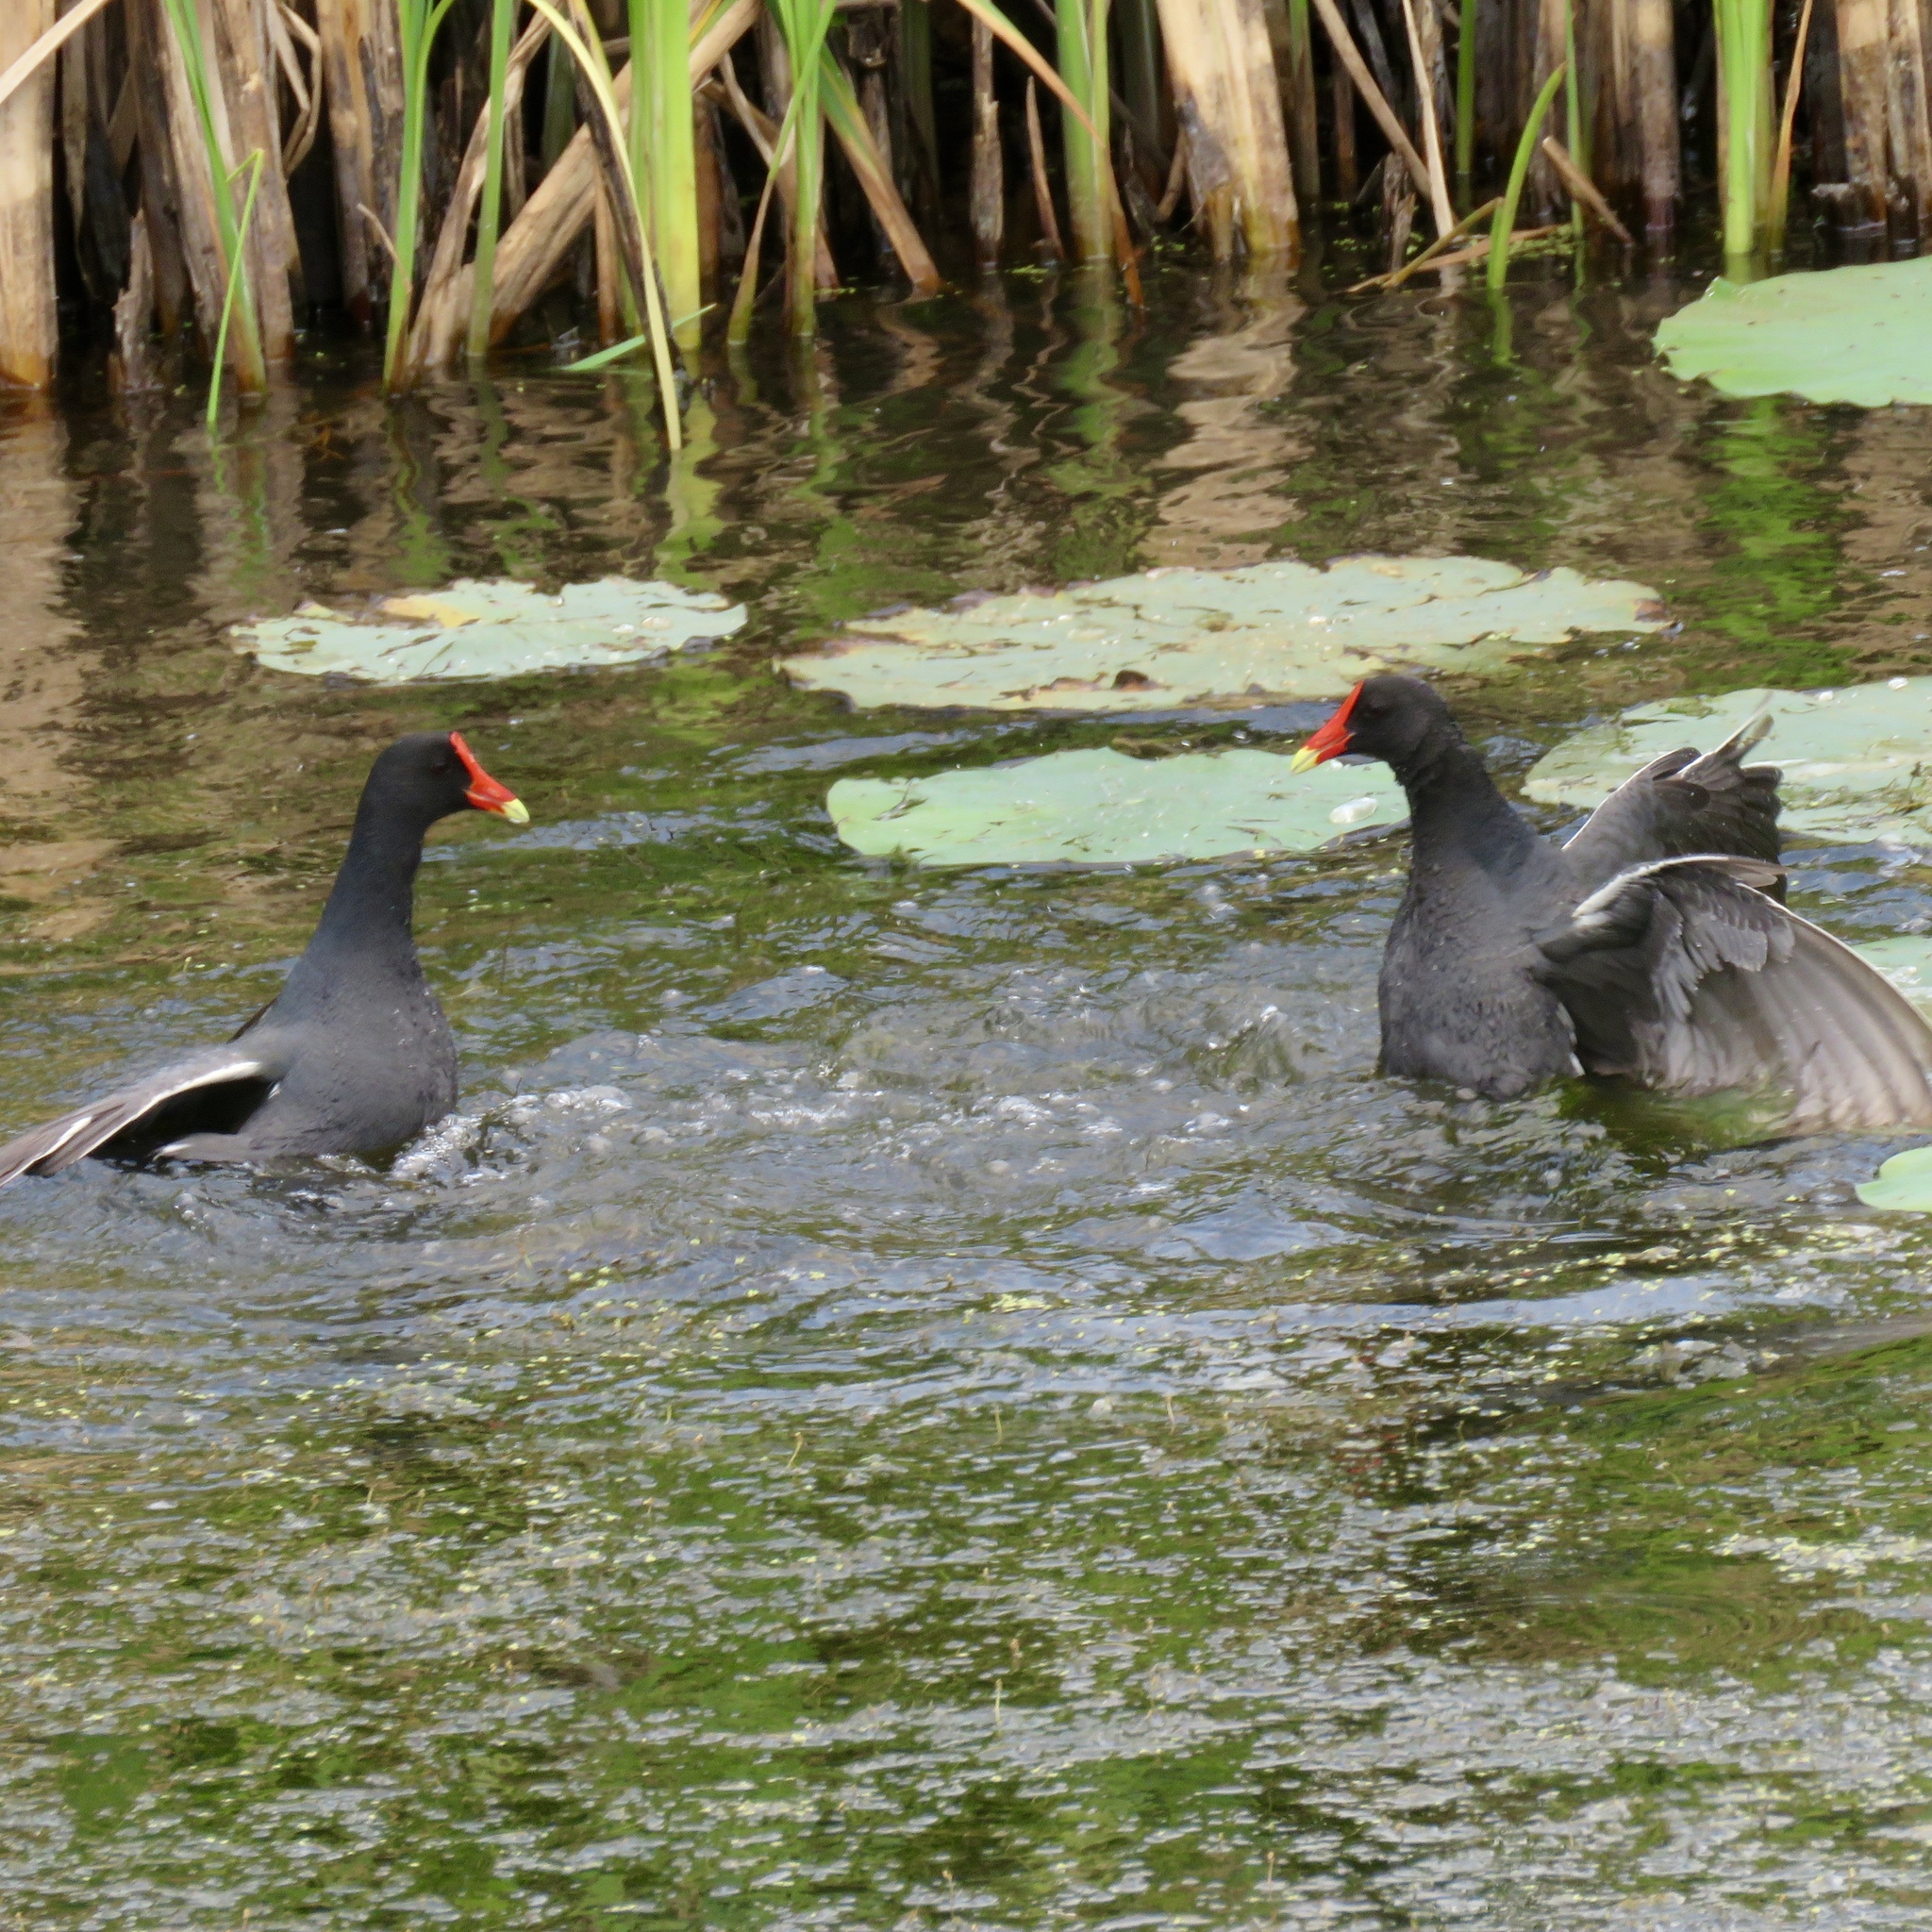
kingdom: Animalia
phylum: Chordata
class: Aves
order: Gruiformes
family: Rallidae
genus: Gallinula
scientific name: Gallinula chloropus
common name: Common moorhen
